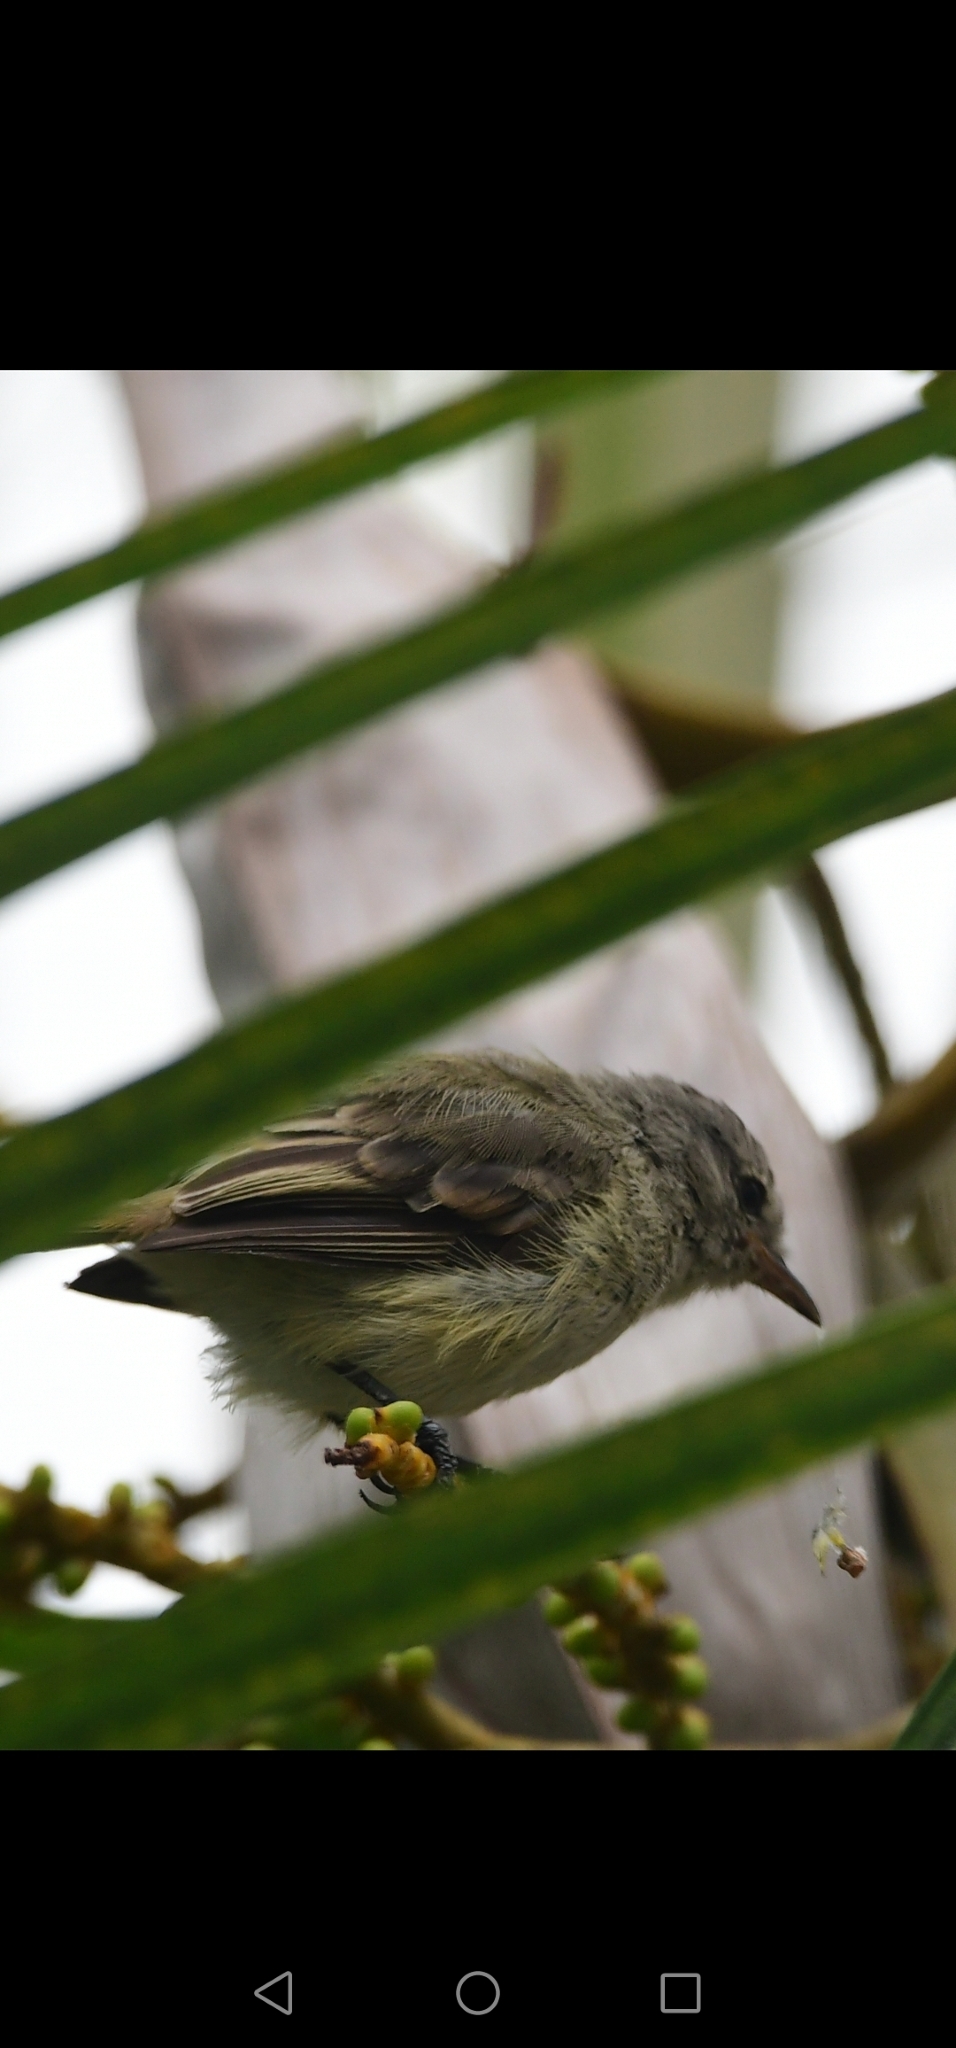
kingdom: Animalia
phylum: Chordata
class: Aves
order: Passeriformes
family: Tyrannidae
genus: Camptostoma
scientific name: Camptostoma obsoletum
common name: Southern beardless-tyrannulet
